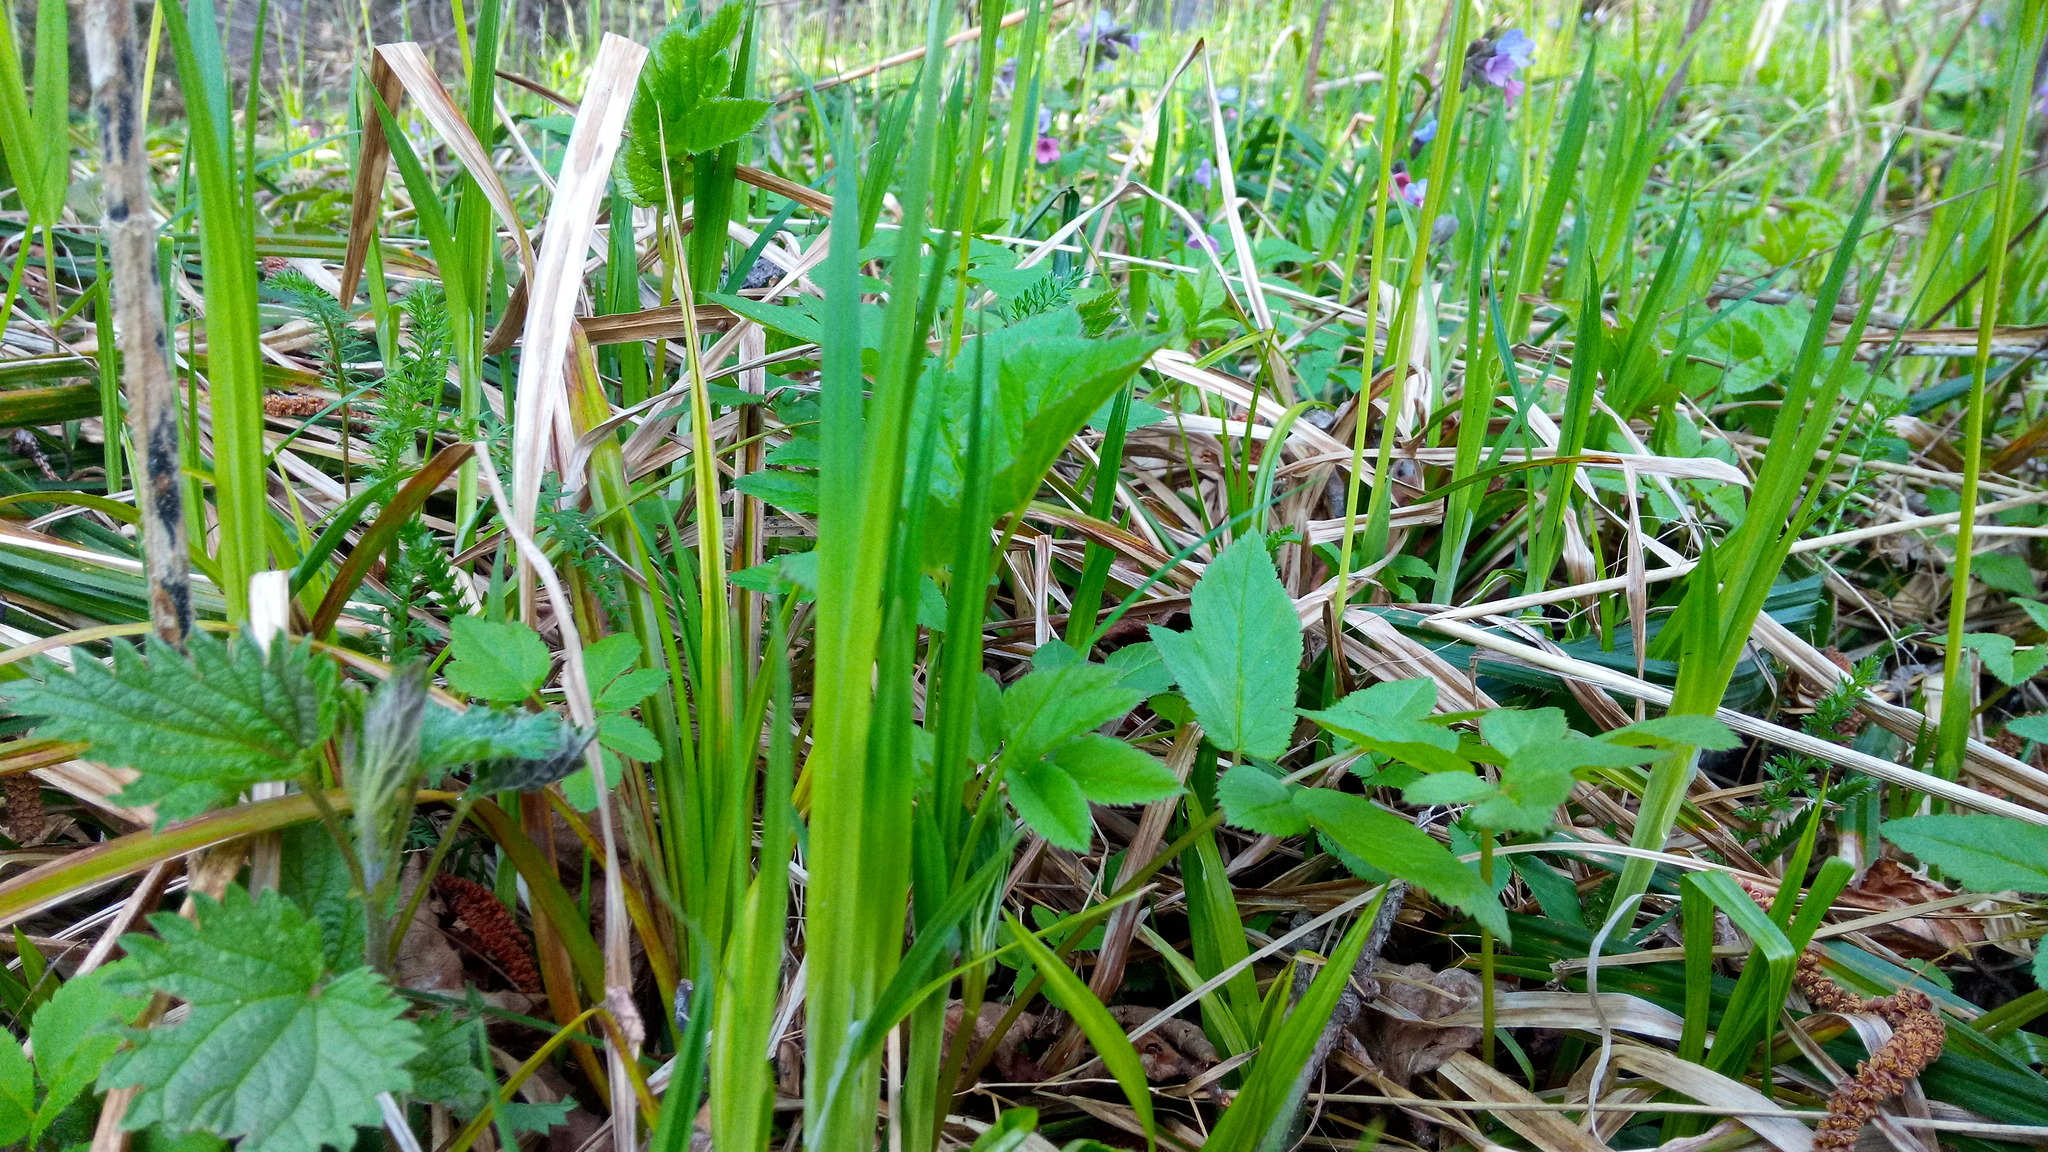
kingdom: Plantae
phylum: Tracheophyta
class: Magnoliopsida
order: Apiales
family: Apiaceae
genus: Aegopodium
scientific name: Aegopodium podagraria
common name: Ground-elder
